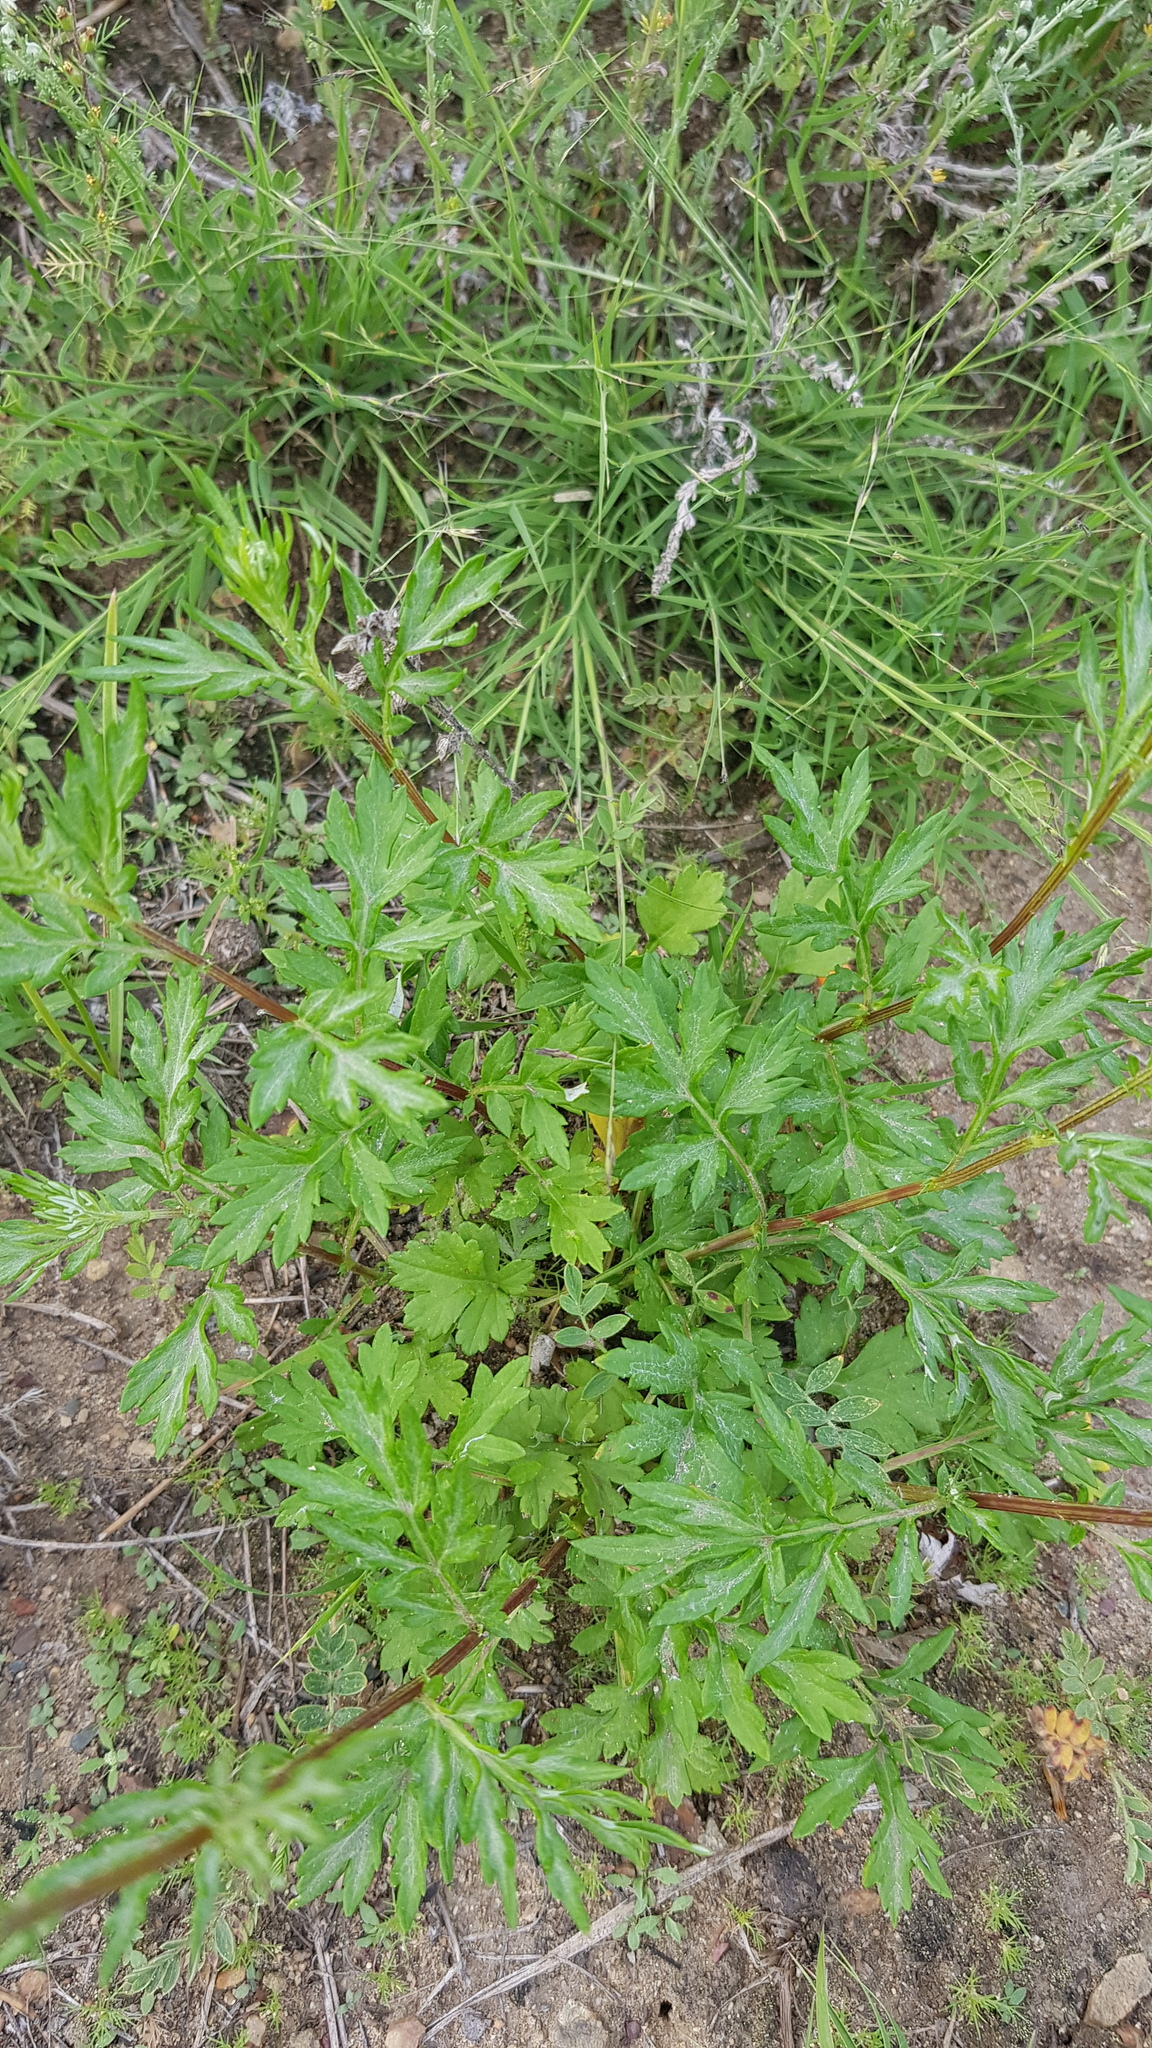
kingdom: Plantae
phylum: Tracheophyta
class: Magnoliopsida
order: Asterales
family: Asteraceae
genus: Artemisia
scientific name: Artemisia vulgaris
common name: Mugwort
